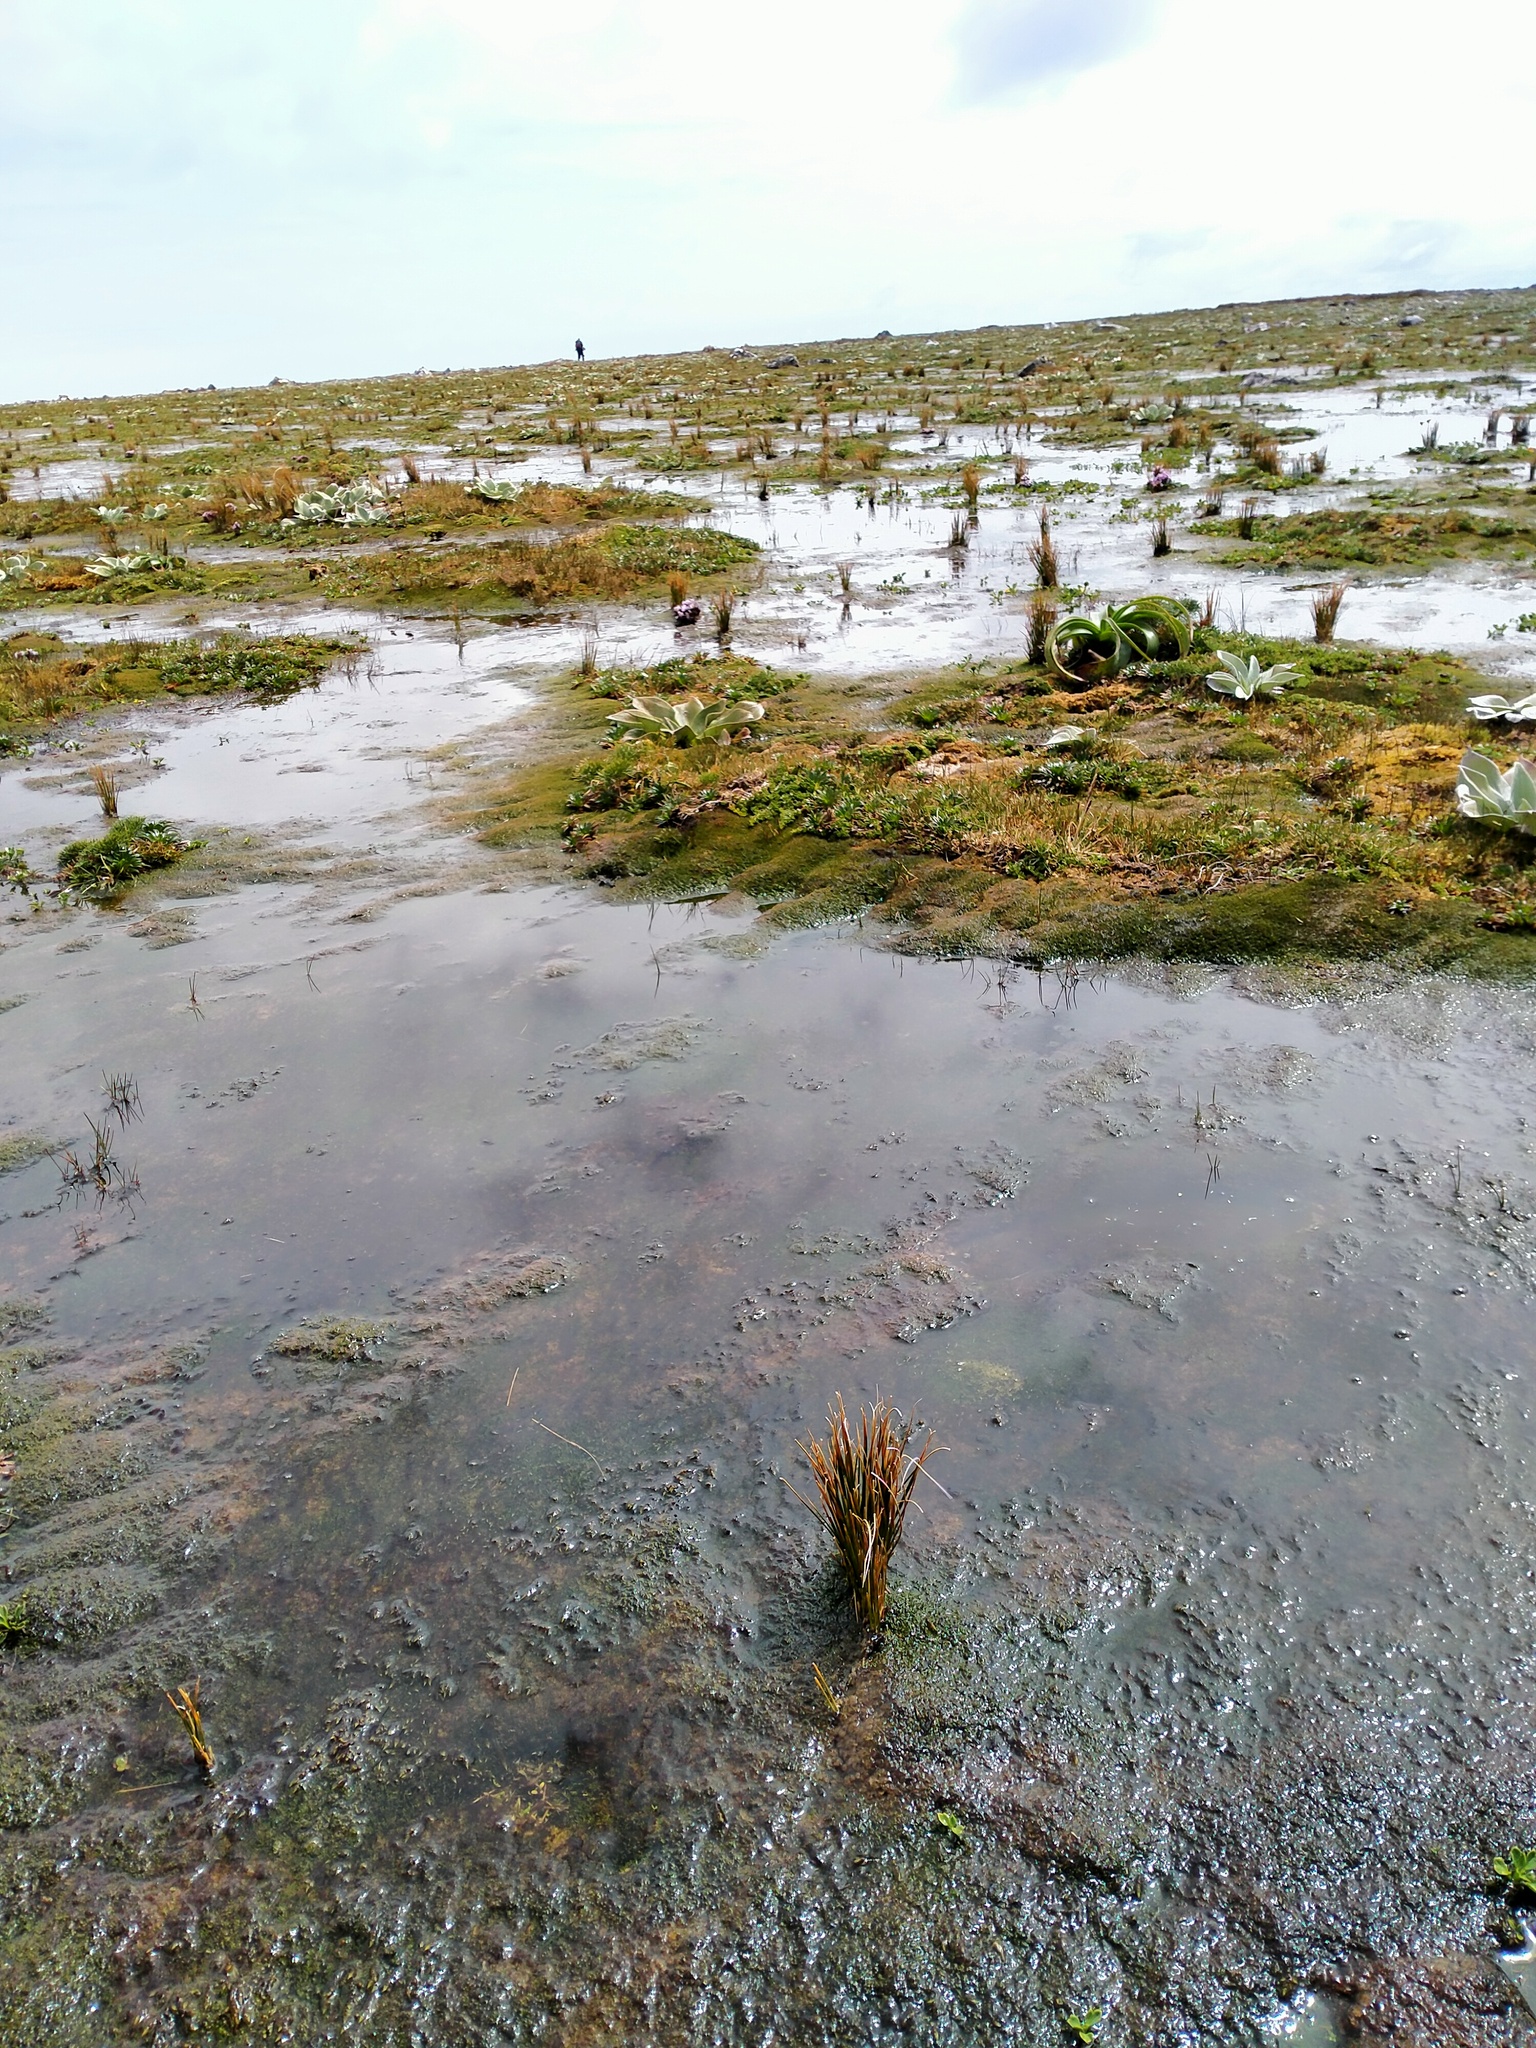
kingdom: Plantae
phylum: Tracheophyta
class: Liliopsida
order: Poales
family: Juncaceae
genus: Marsippospermum
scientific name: Marsippospermum gracile
